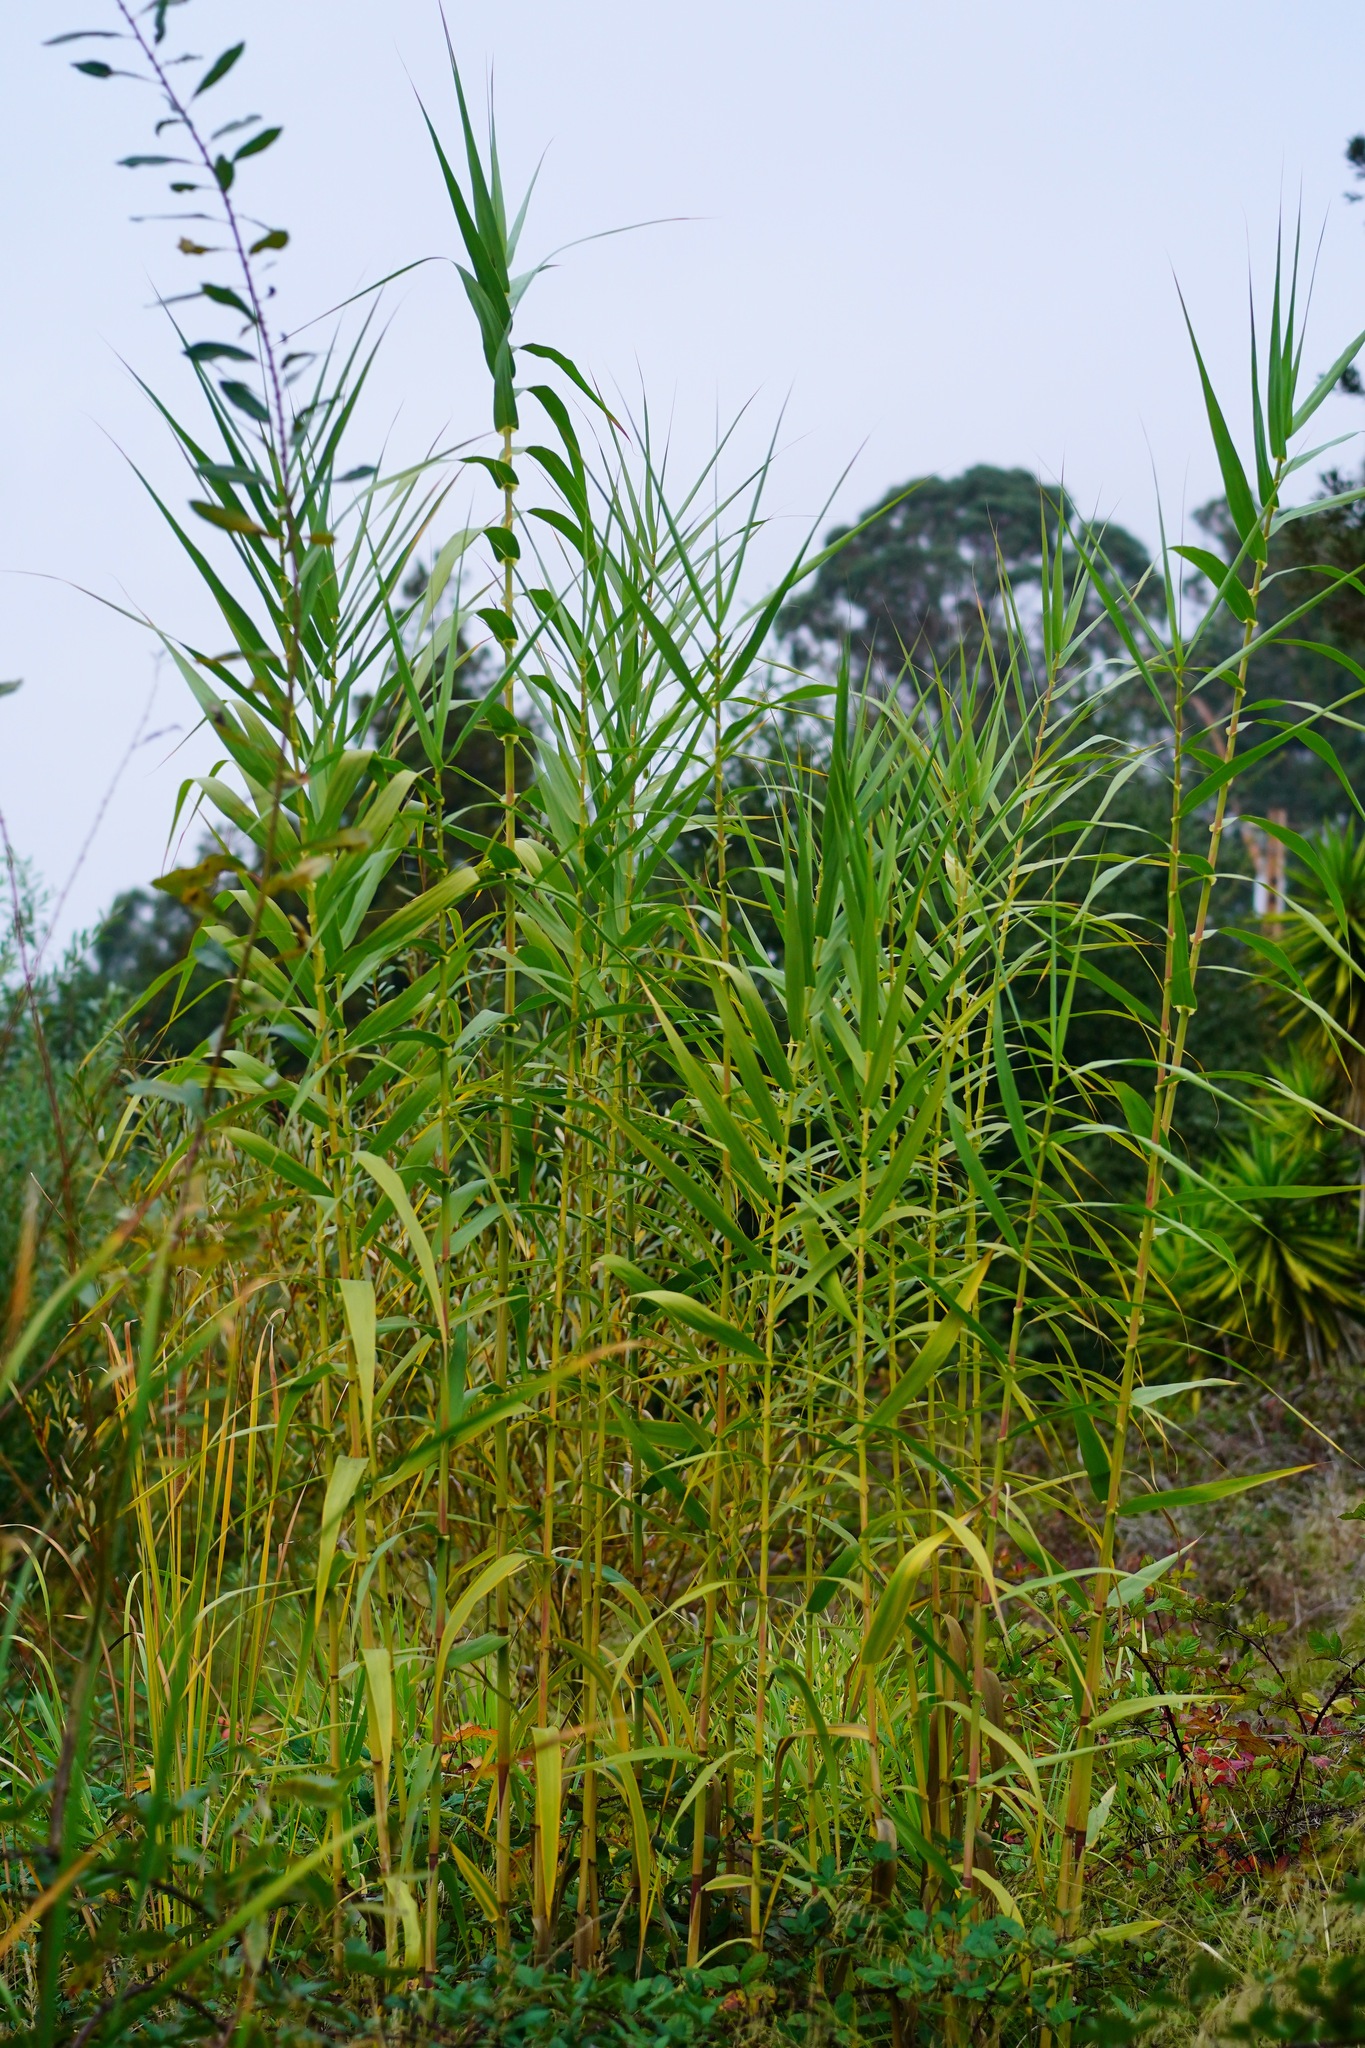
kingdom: Plantae
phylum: Tracheophyta
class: Liliopsida
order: Poales
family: Poaceae
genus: Arundo
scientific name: Arundo donax
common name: Giant reed
